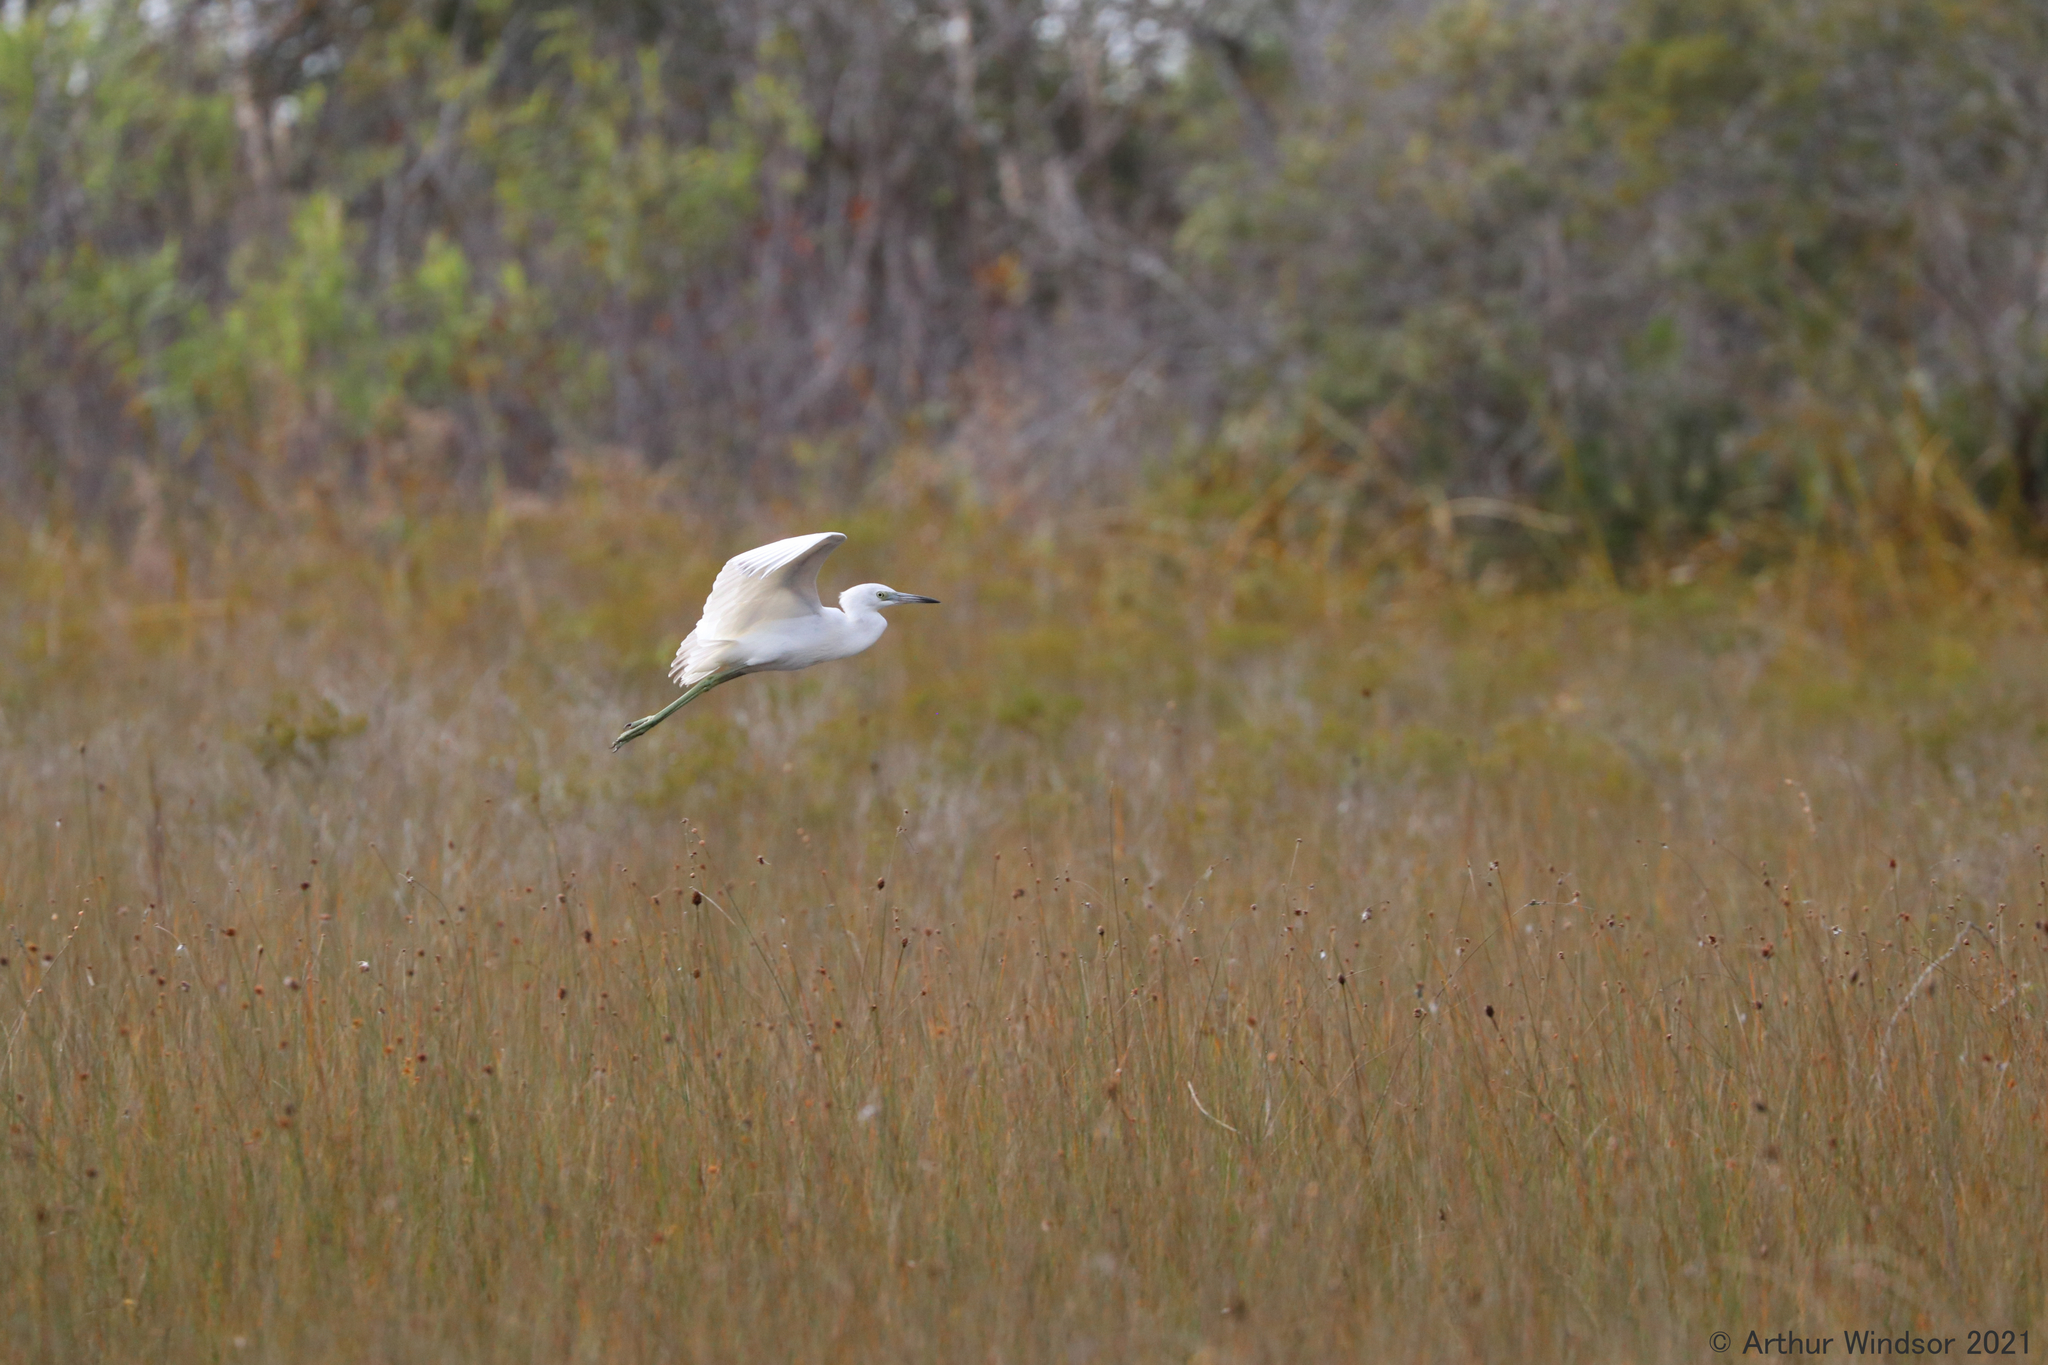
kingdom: Animalia
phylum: Chordata
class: Aves
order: Pelecaniformes
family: Ardeidae
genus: Egretta
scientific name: Egretta caerulea
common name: Little blue heron
